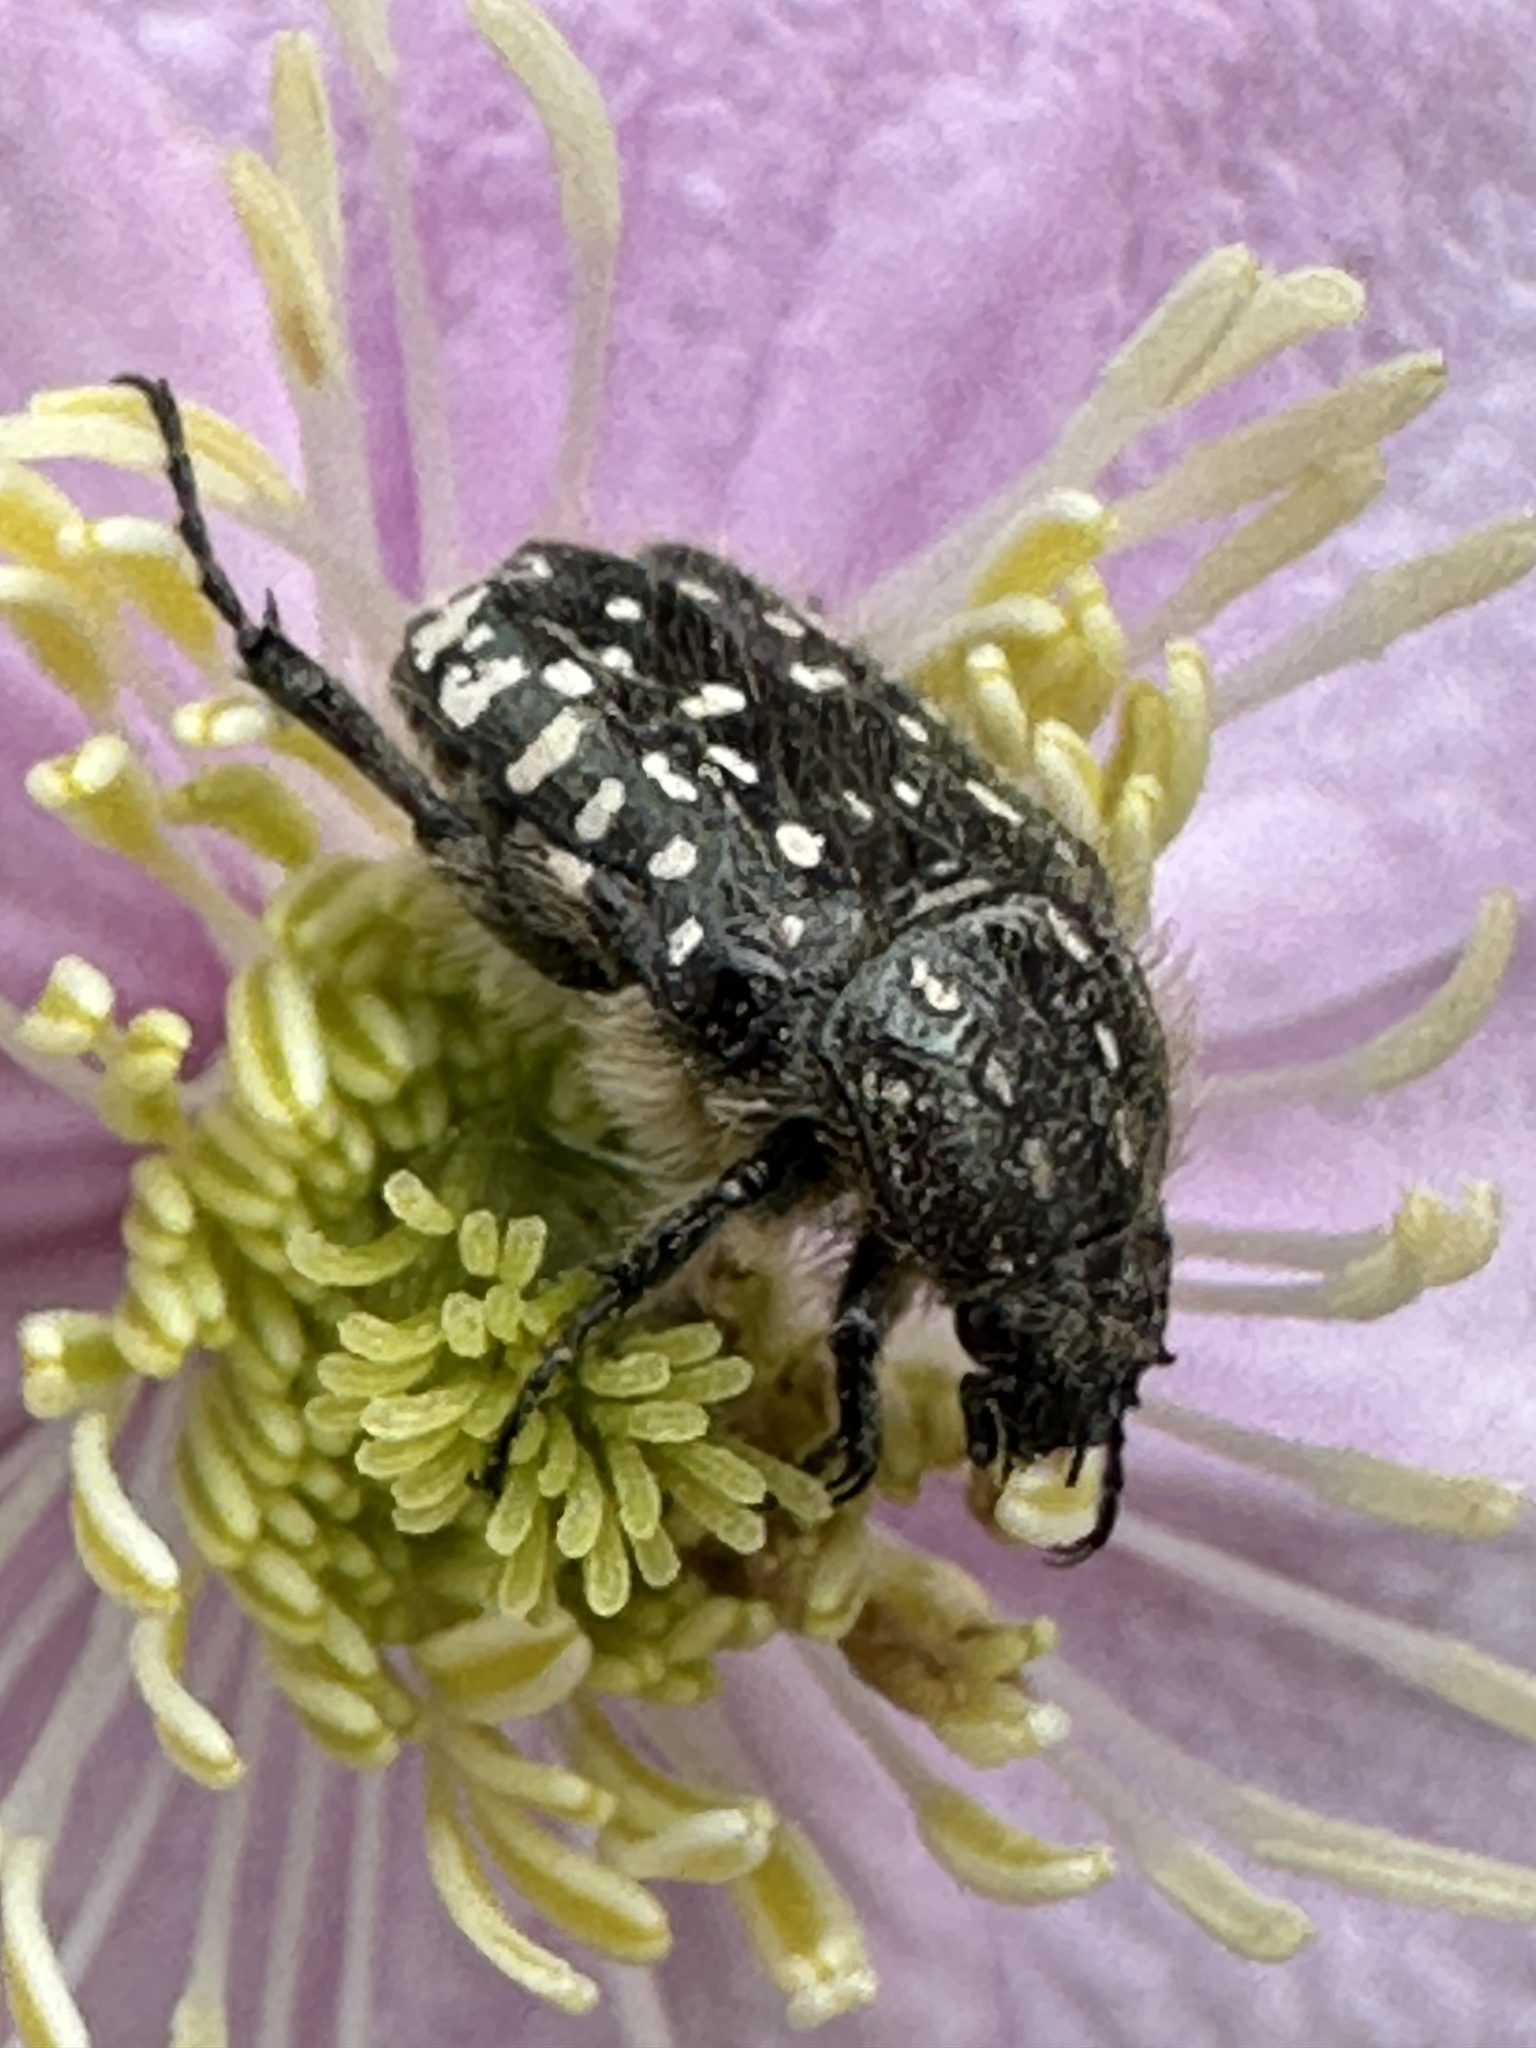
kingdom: Animalia
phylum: Arthropoda
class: Insecta
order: Coleoptera
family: Scarabaeidae
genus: Oxythyrea
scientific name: Oxythyrea funesta
